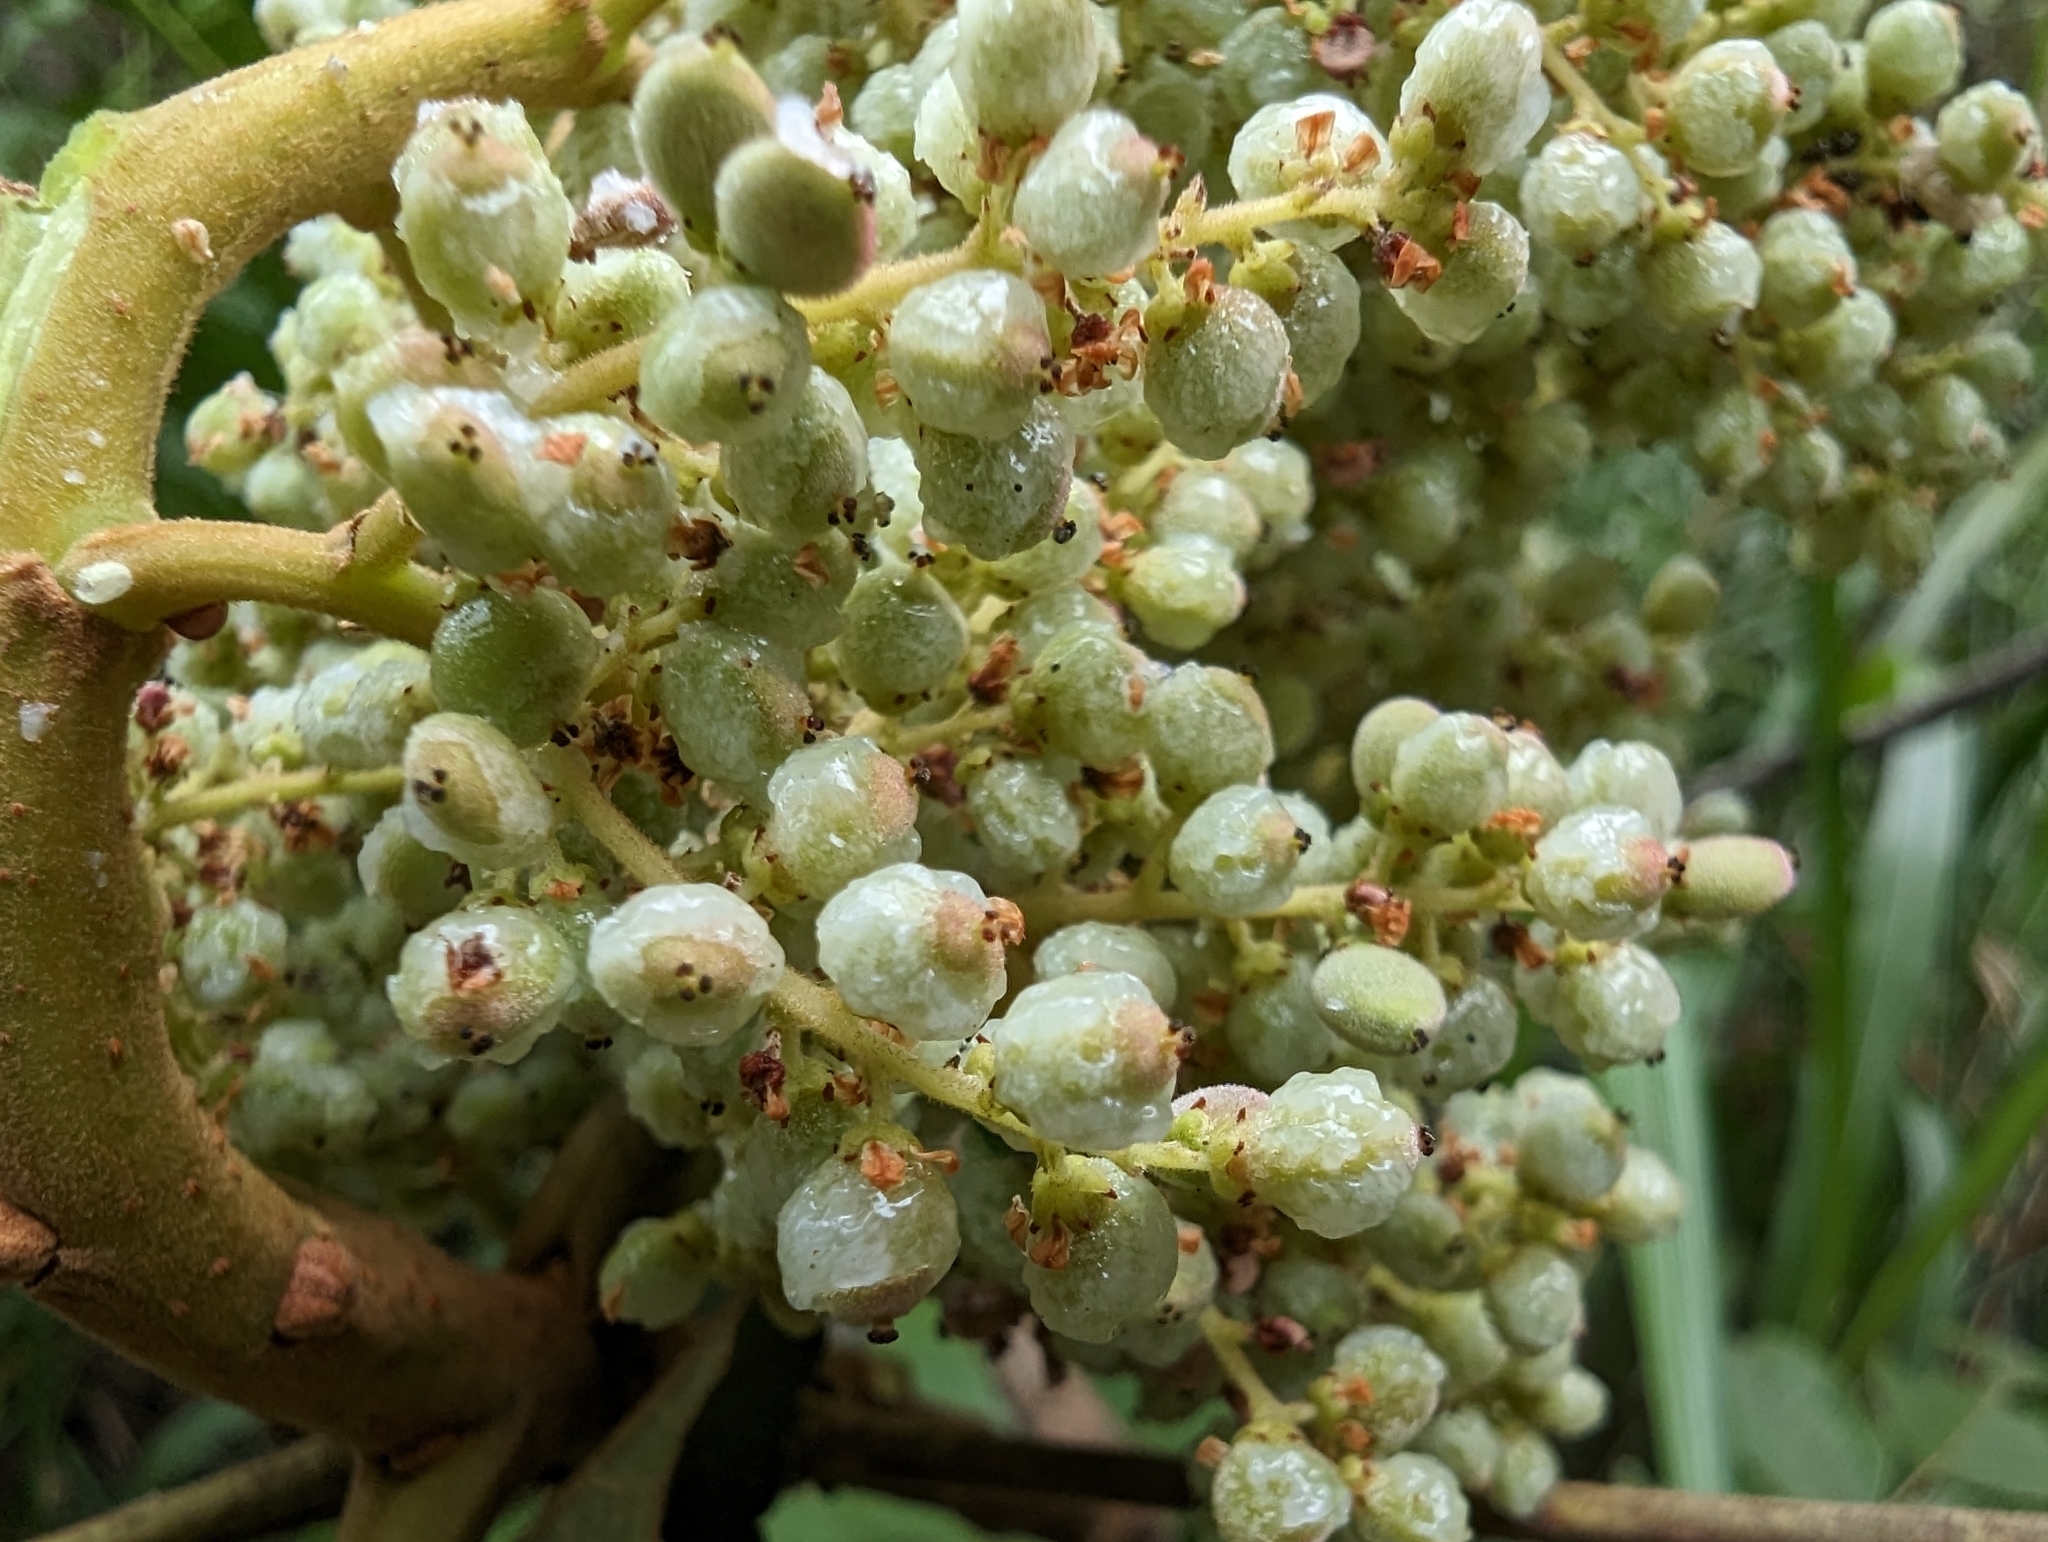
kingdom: Plantae
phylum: Tracheophyta
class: Magnoliopsida
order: Sapindales
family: Anacardiaceae
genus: Rhus
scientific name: Rhus chinensis
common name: Chinese gall
